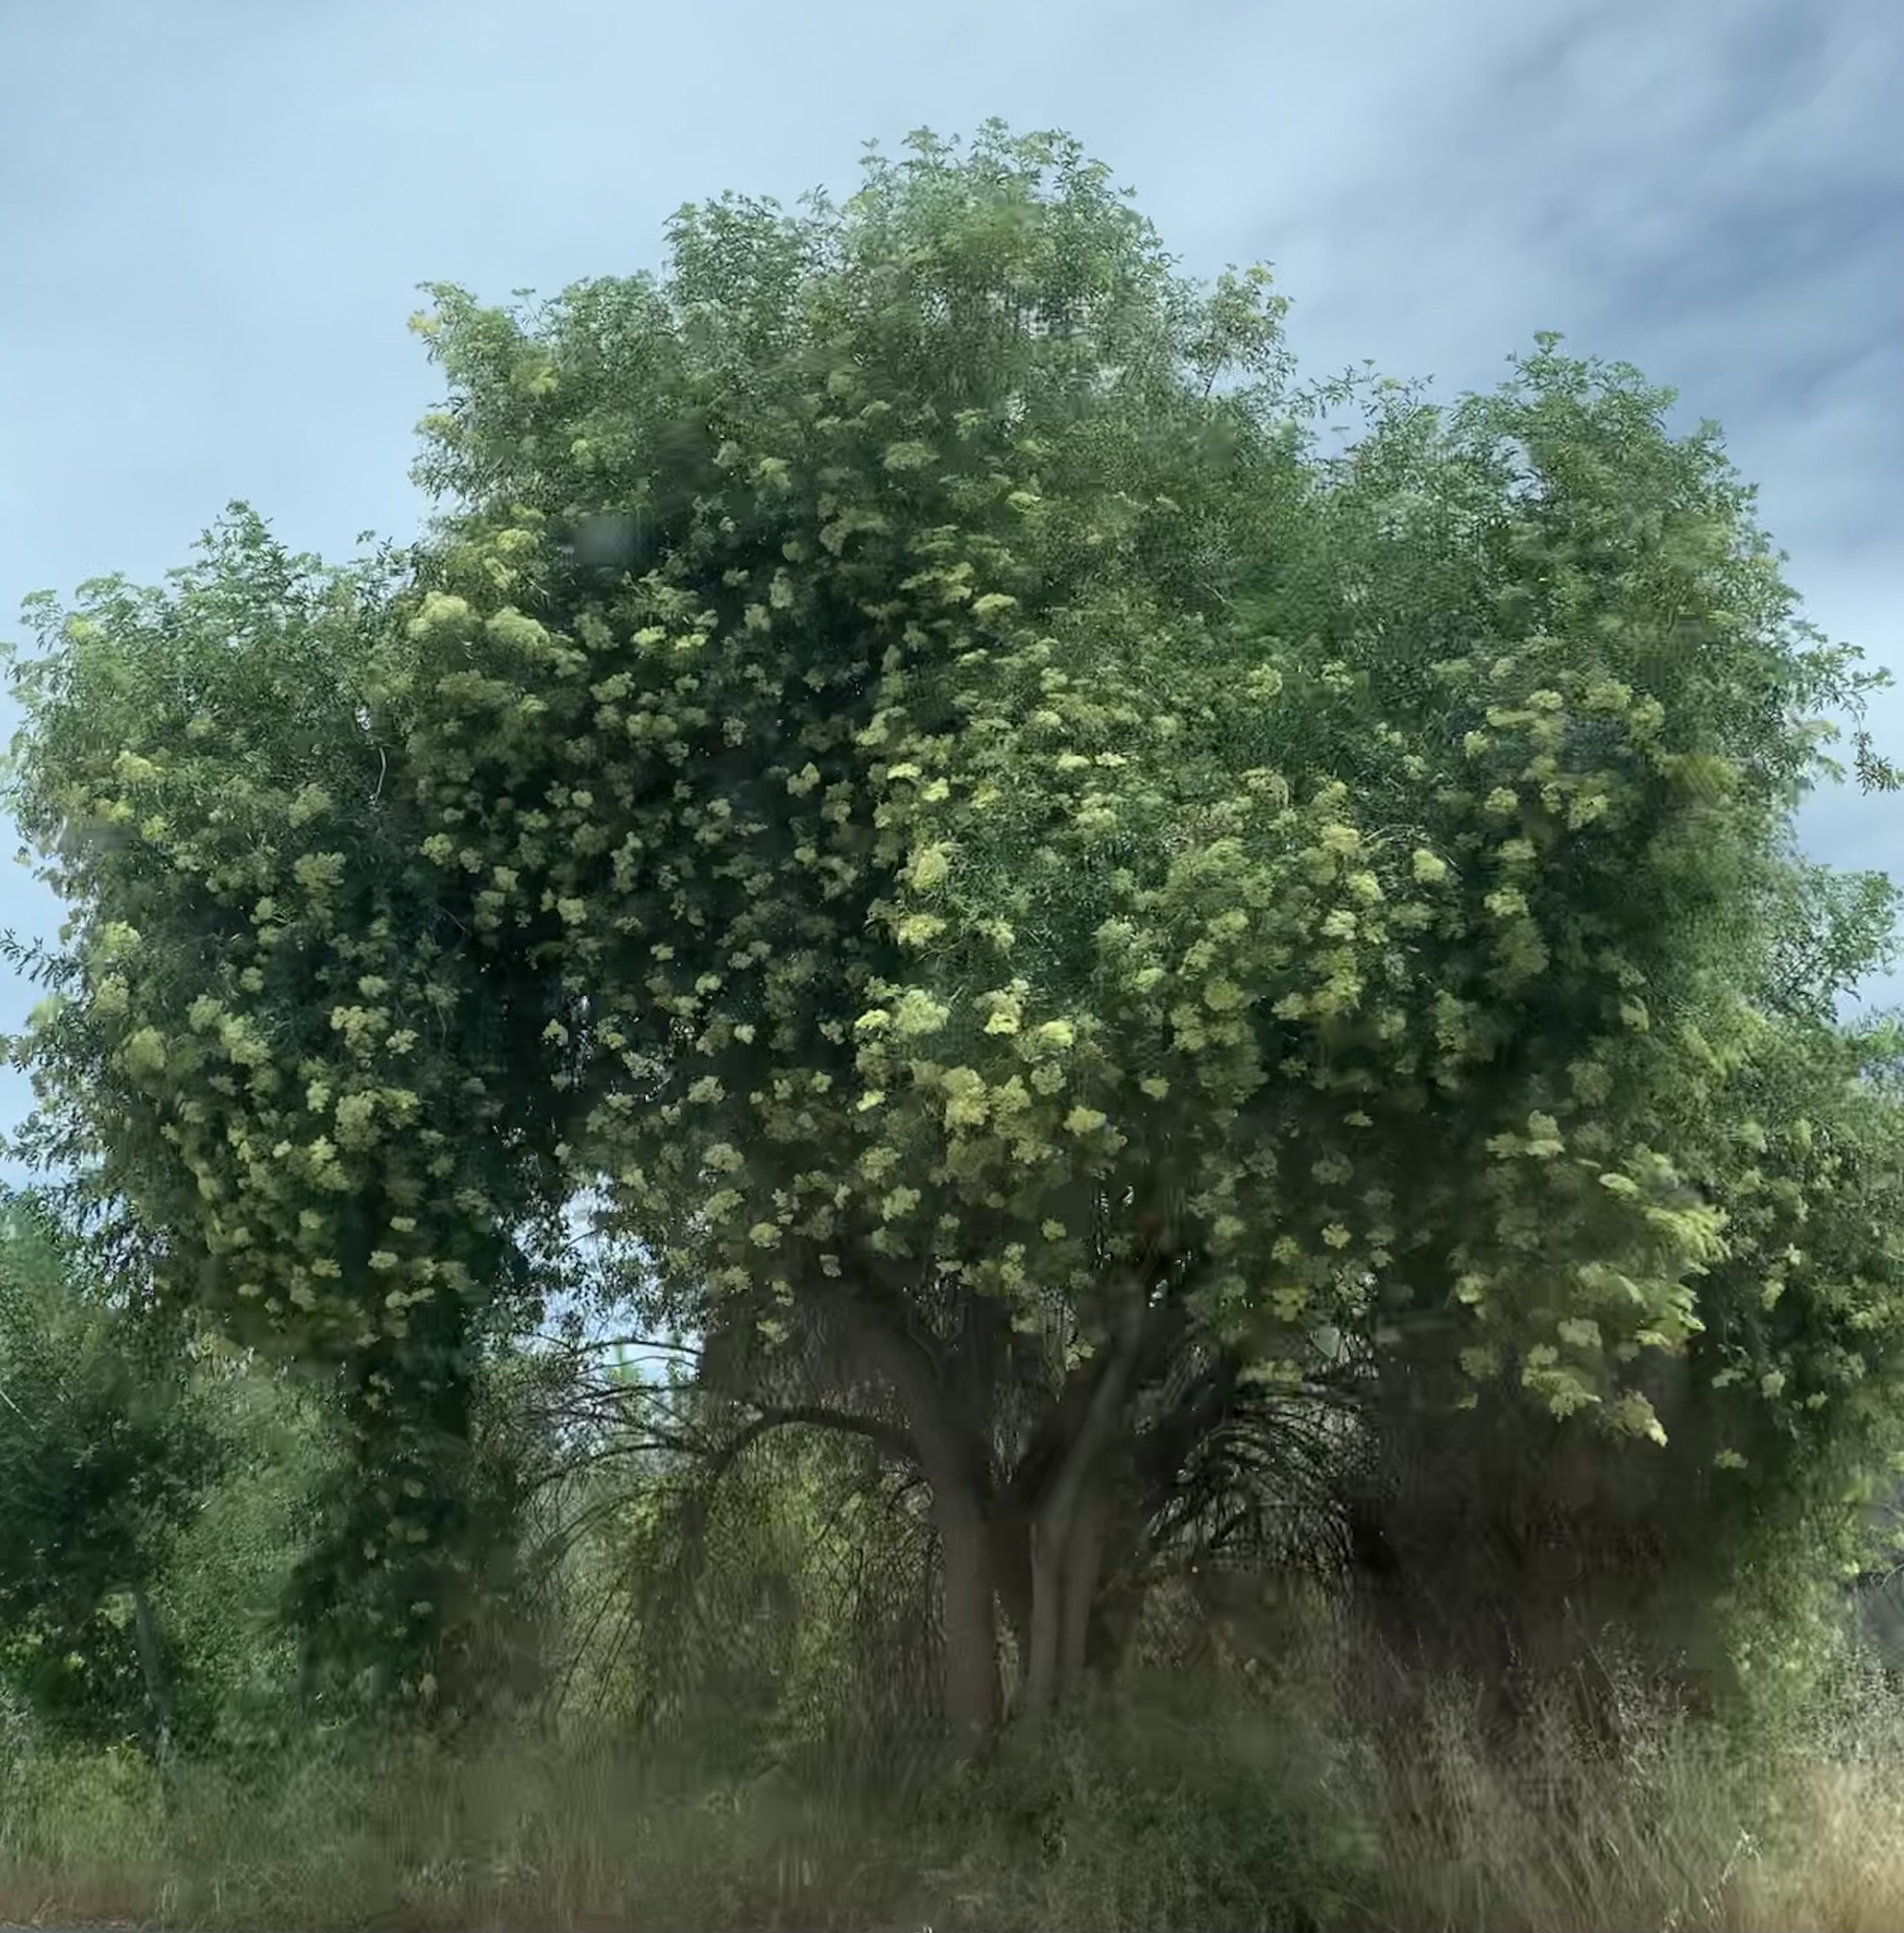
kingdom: Plantae
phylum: Tracheophyta
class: Magnoliopsida
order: Dipsacales
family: Viburnaceae
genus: Sambucus
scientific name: Sambucus cerulea
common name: Blue elder
